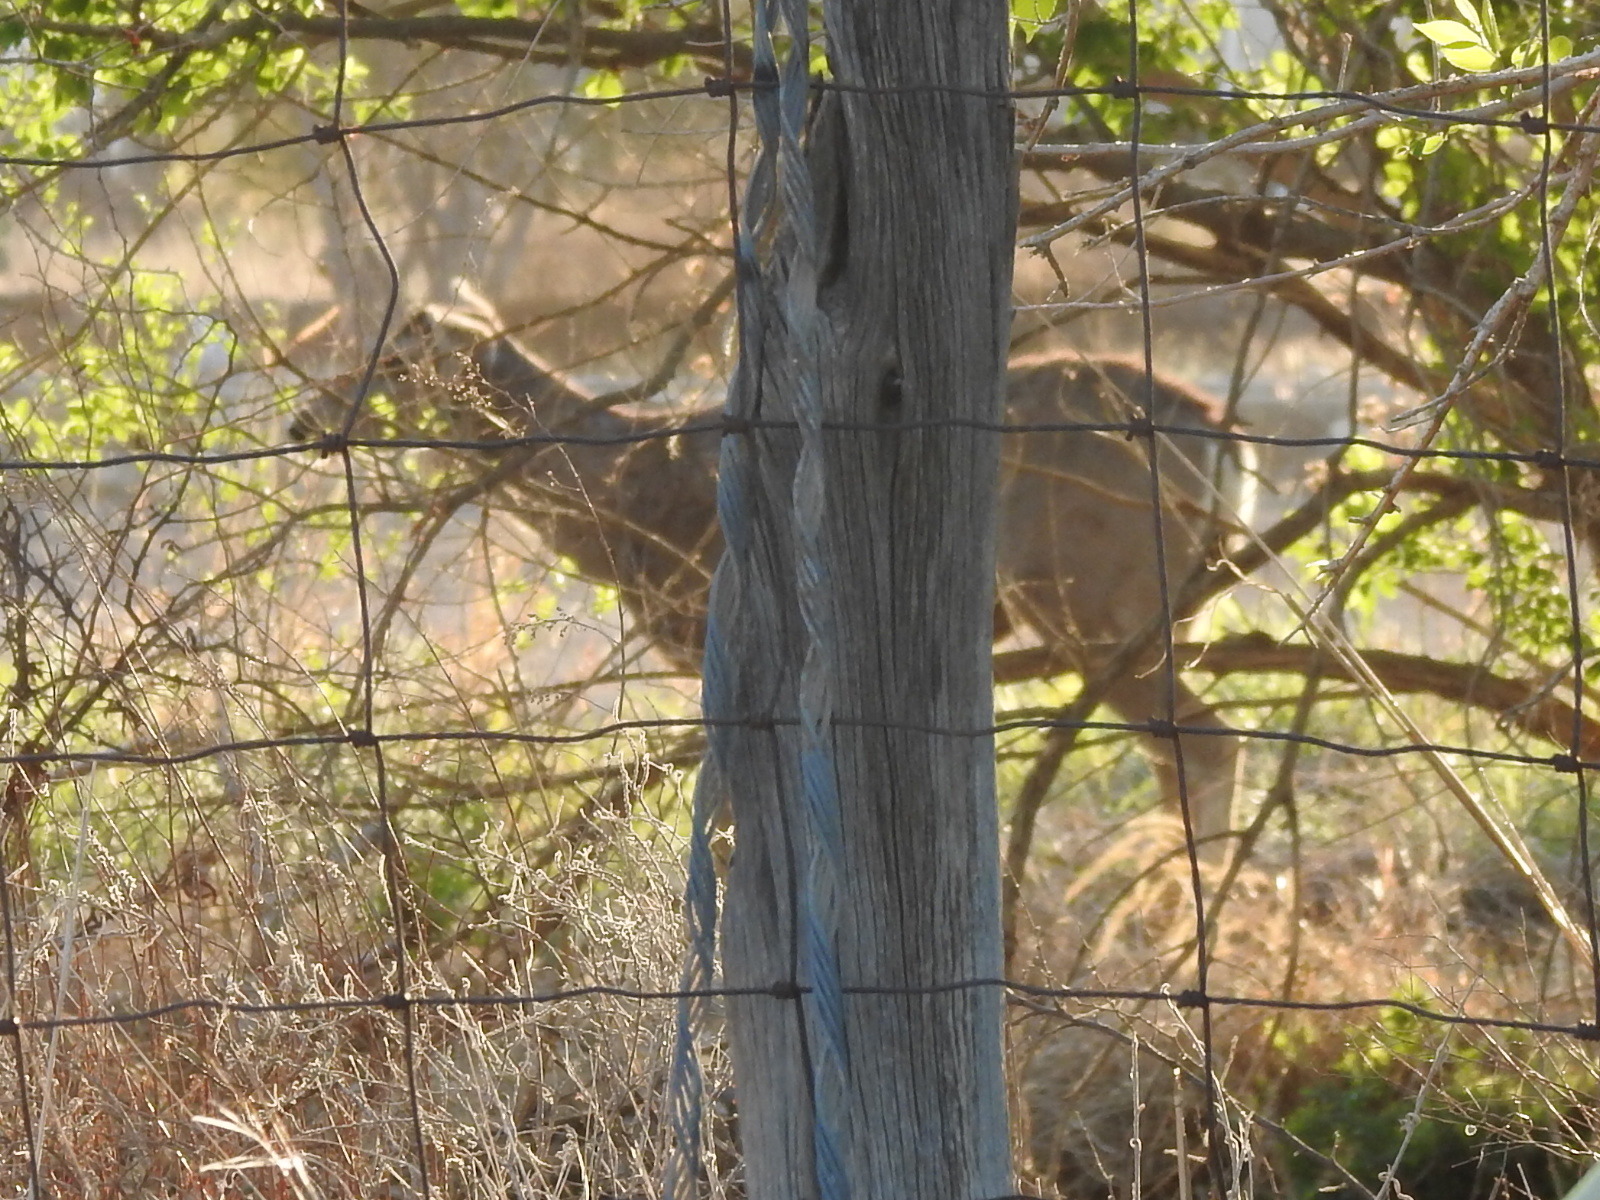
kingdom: Animalia
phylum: Chordata
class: Mammalia
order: Artiodactyla
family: Cervidae
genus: Odocoileus
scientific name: Odocoileus hemionus
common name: Mule deer
